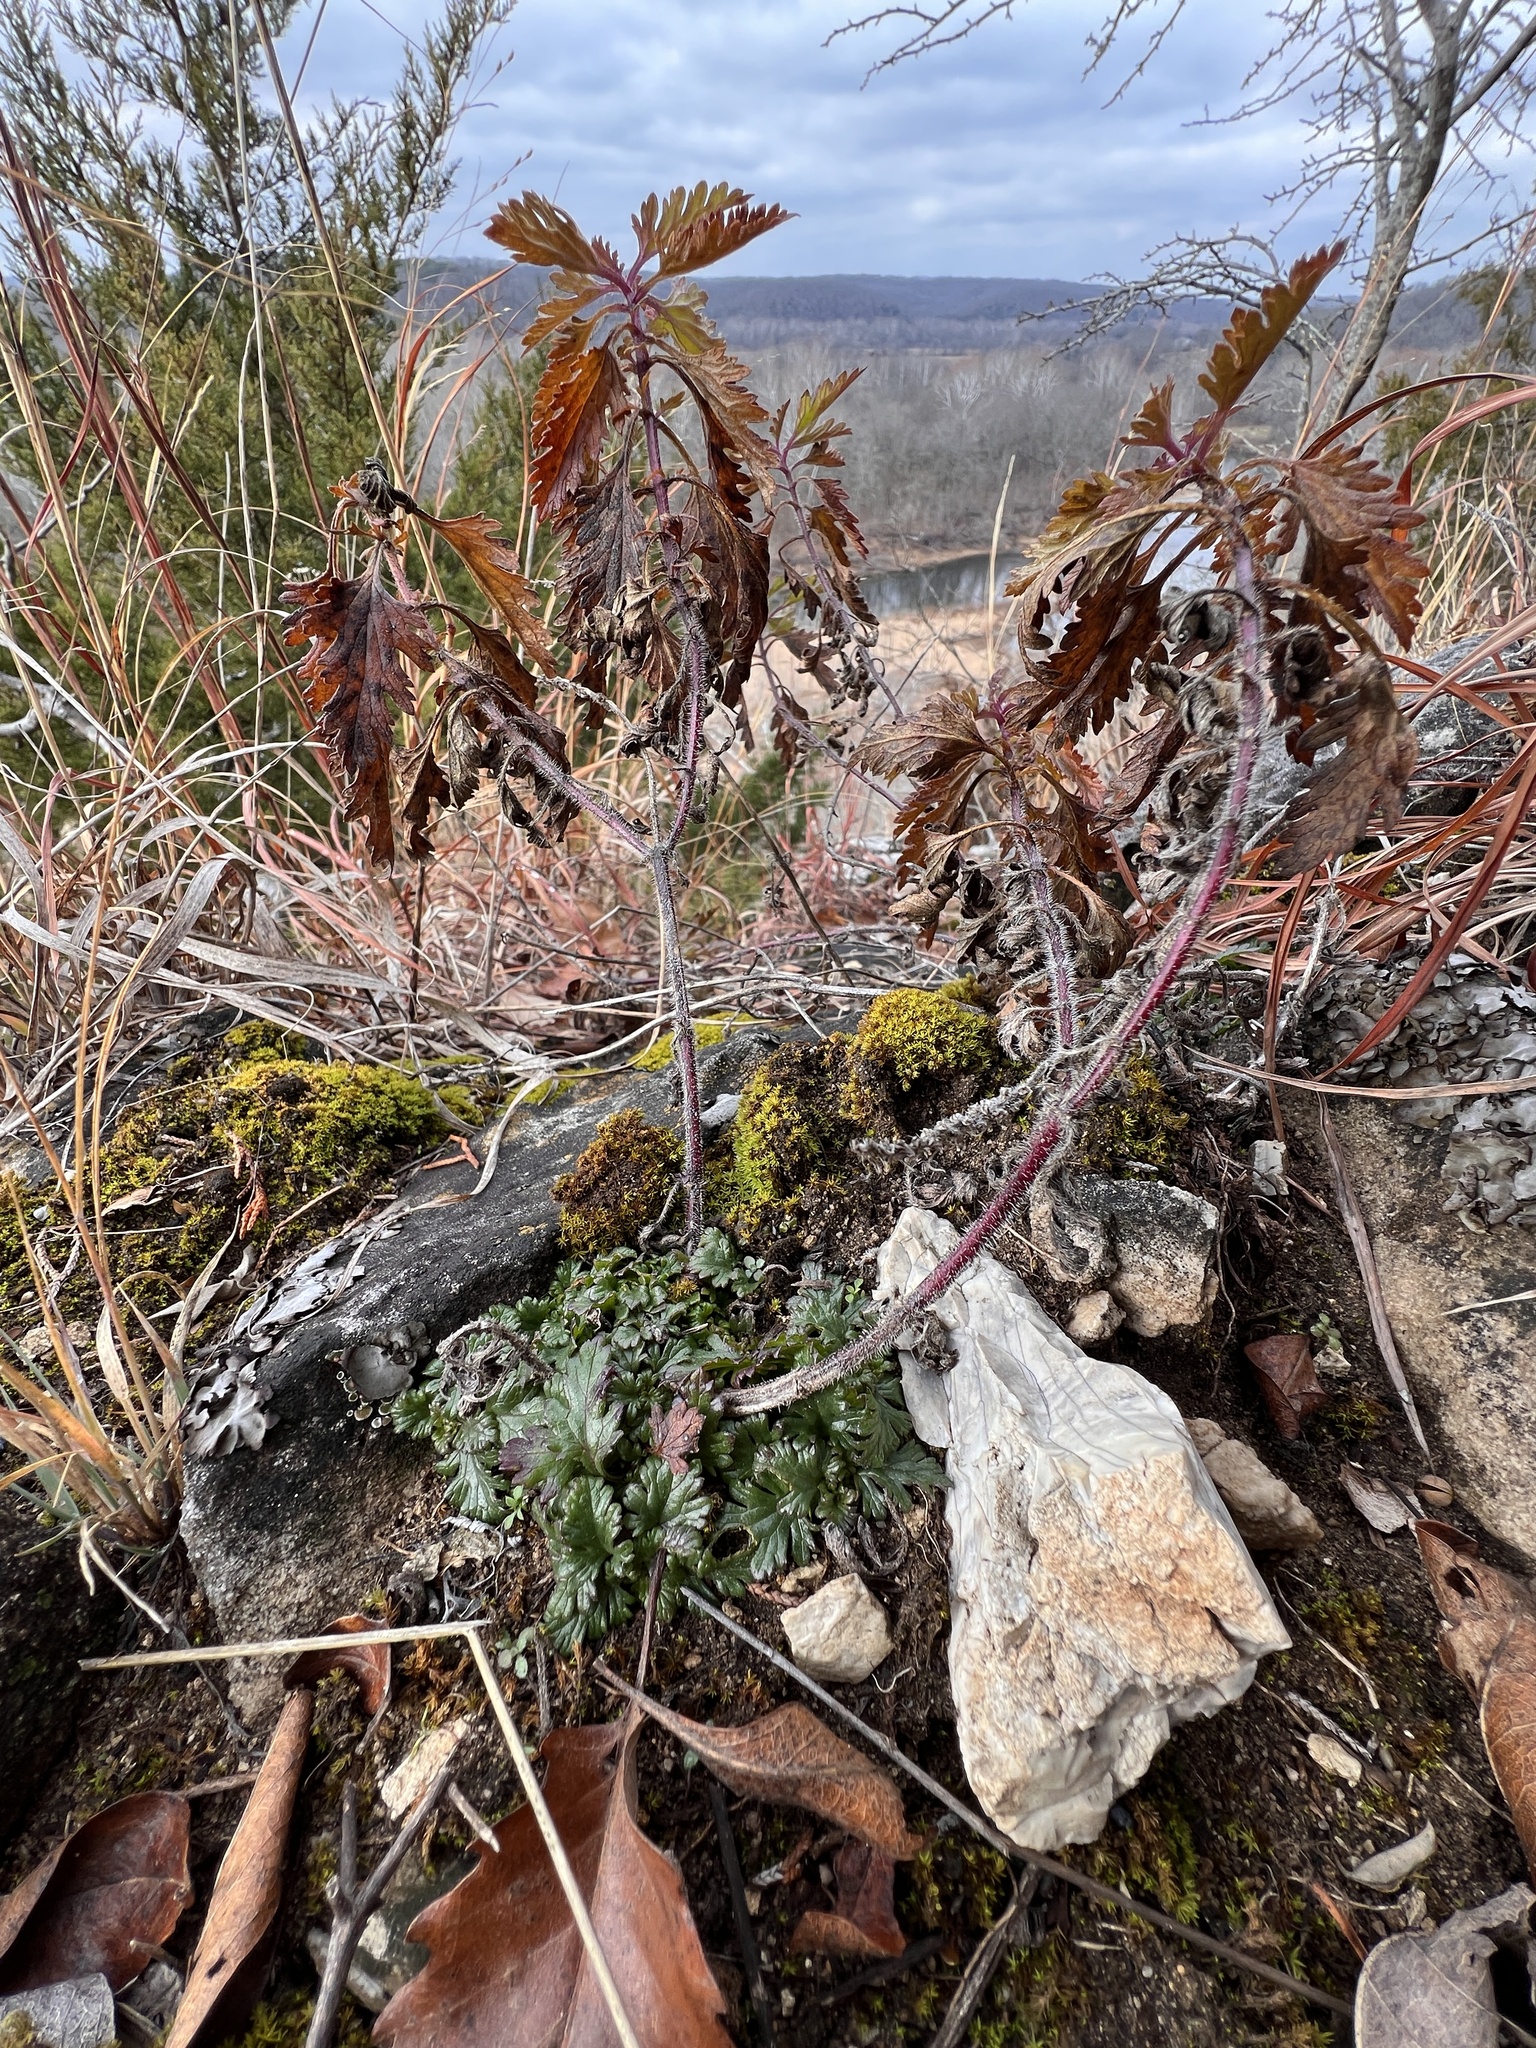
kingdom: Plantae
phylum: Tracheophyta
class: Magnoliopsida
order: Lamiales
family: Verbenaceae
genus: Verbena
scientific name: Verbena canadensis
